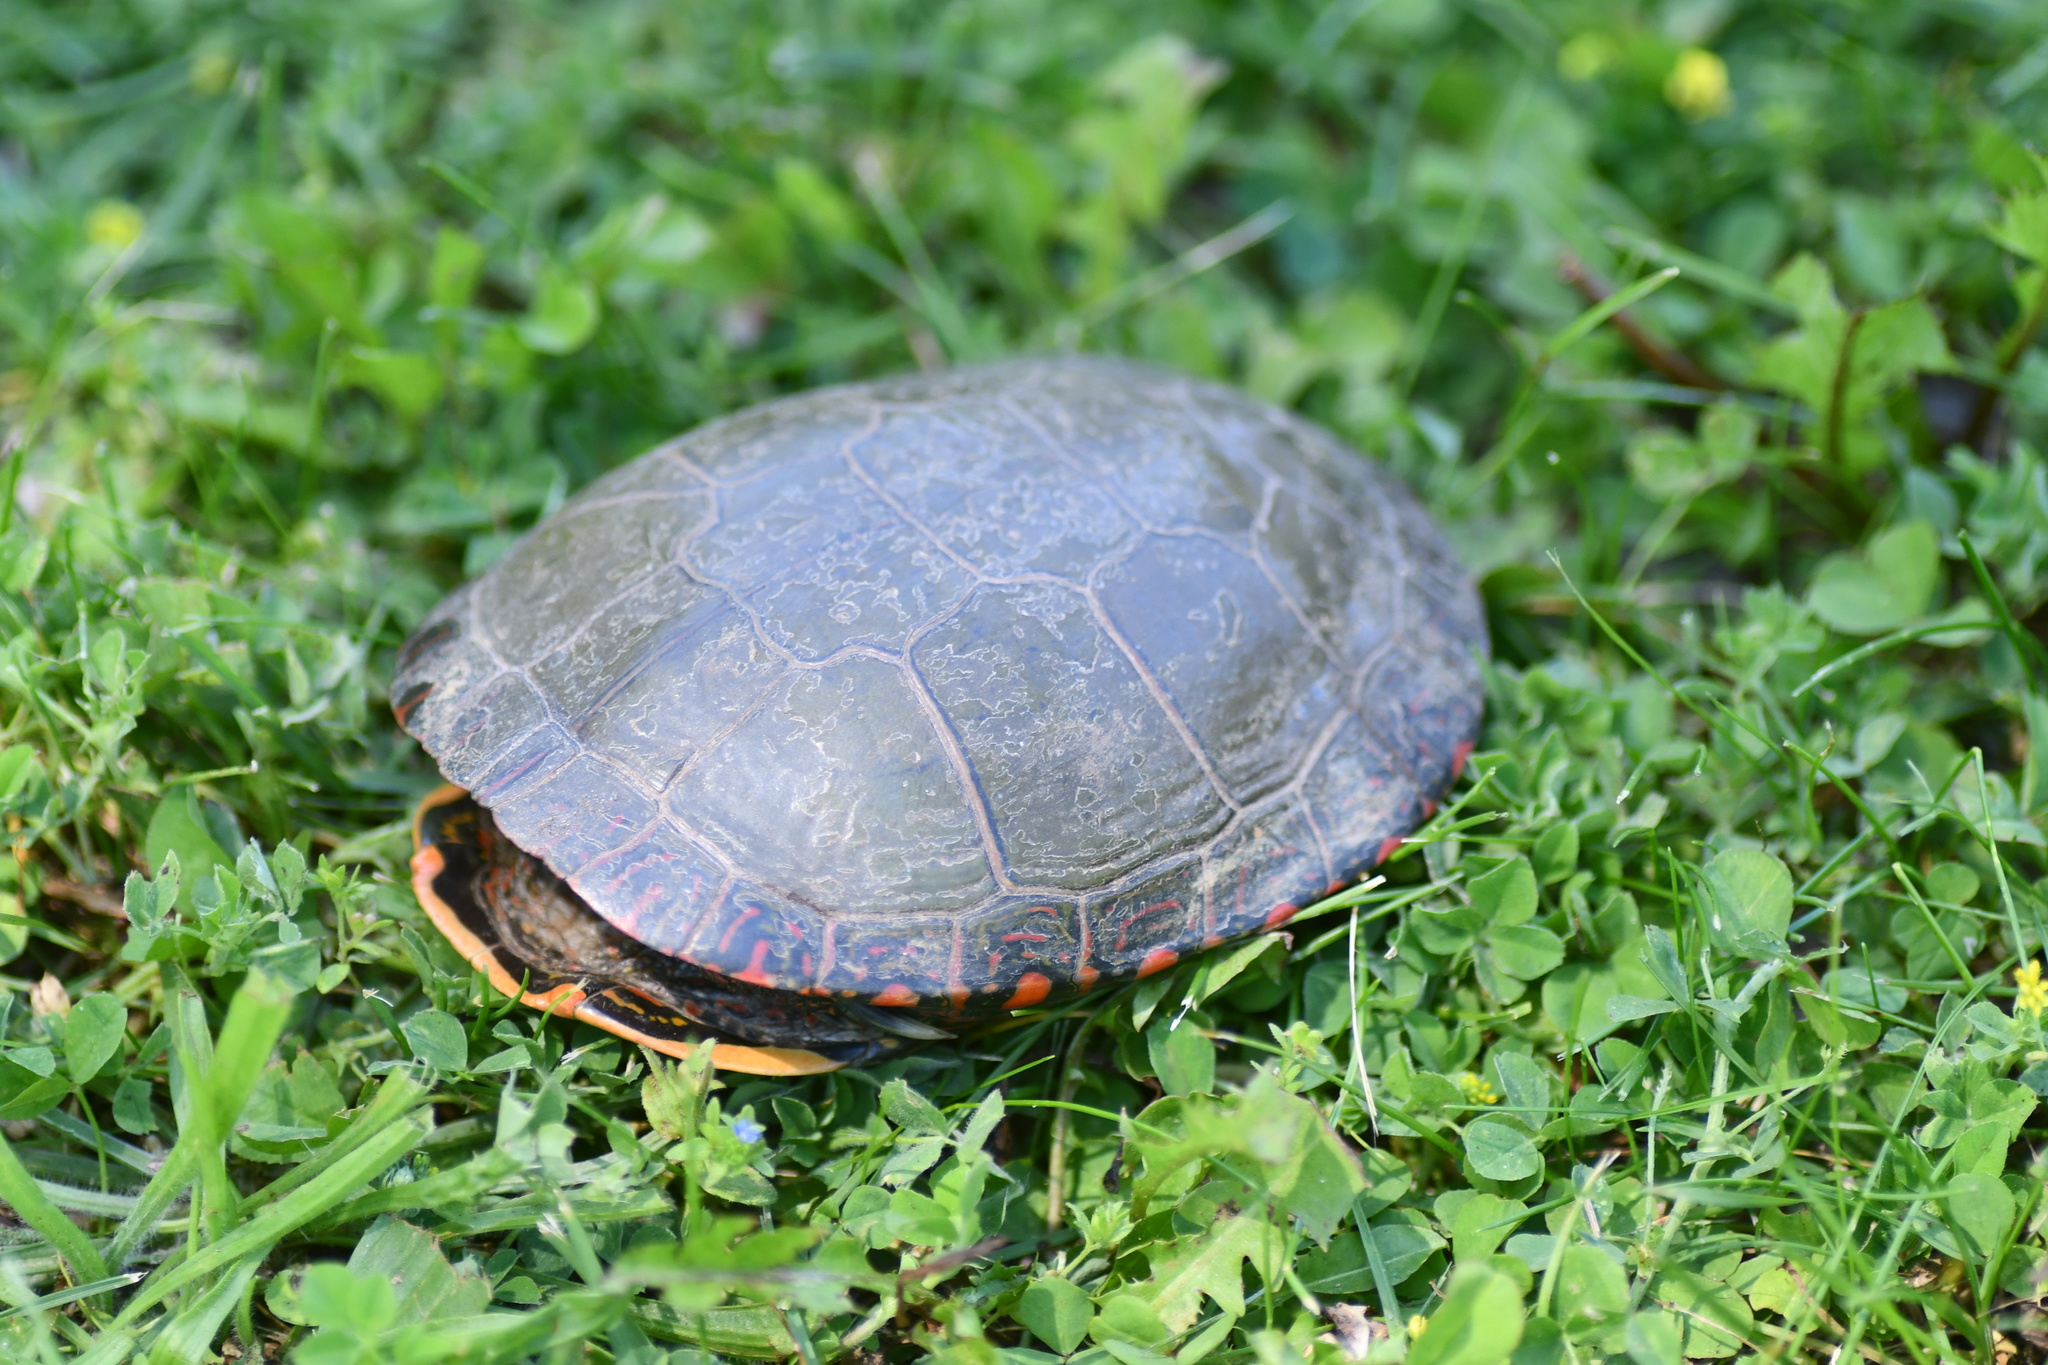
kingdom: Animalia
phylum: Chordata
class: Testudines
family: Emydidae
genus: Chrysemys
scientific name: Chrysemys picta
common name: Painted turtle
